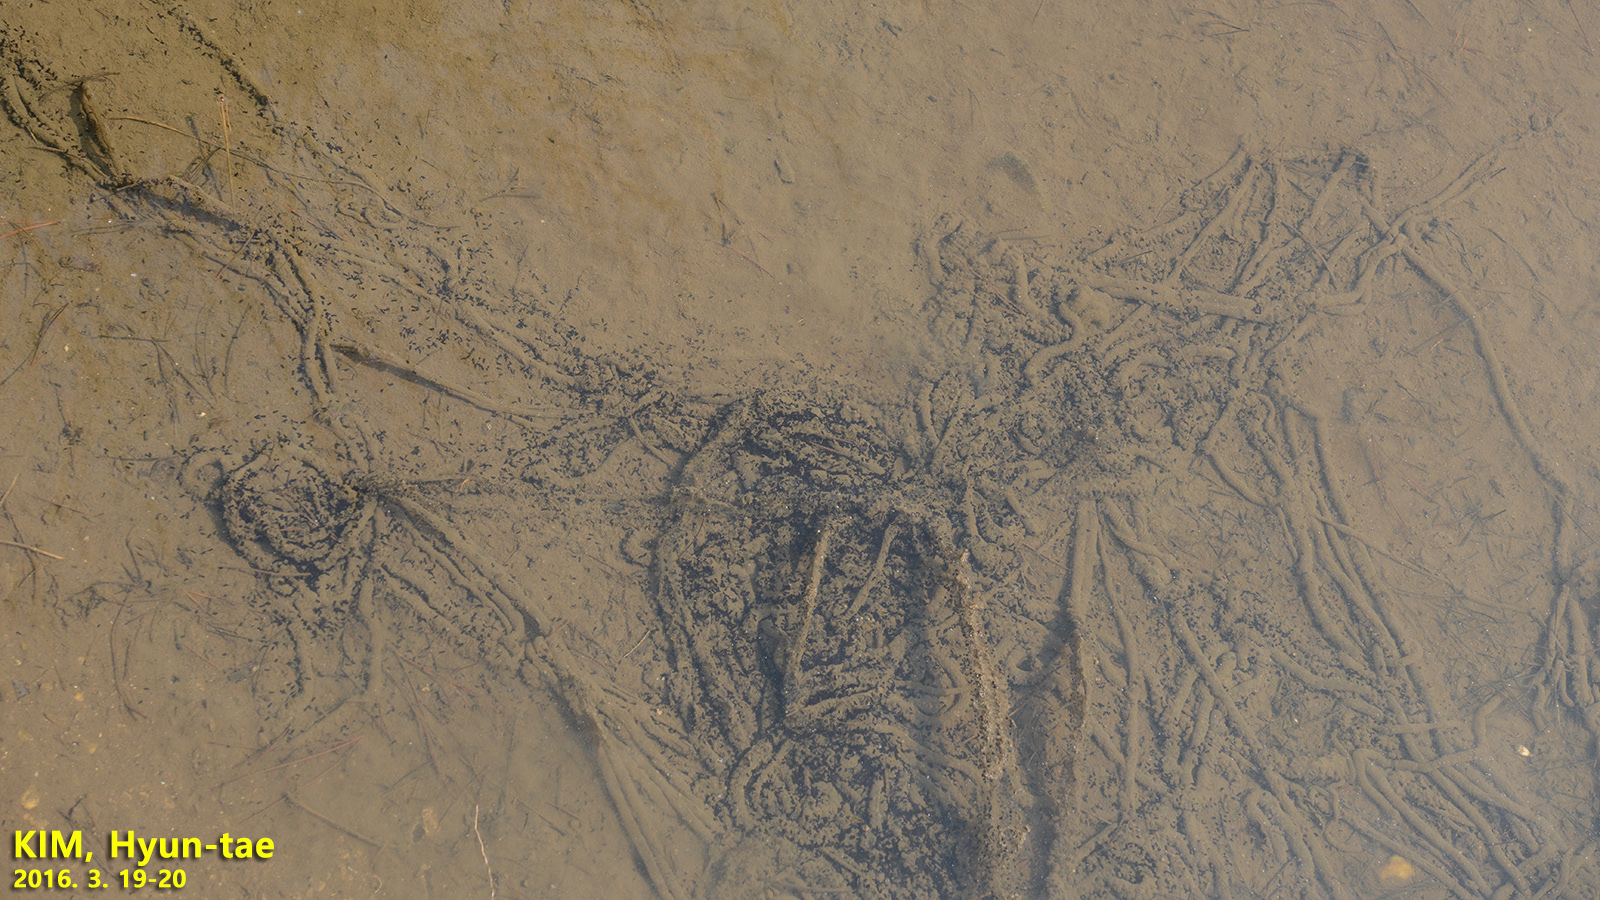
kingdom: Animalia
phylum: Chordata
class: Amphibia
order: Anura
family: Bufonidae
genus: Bufo
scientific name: Bufo gargarizans
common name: Asiatic toad
